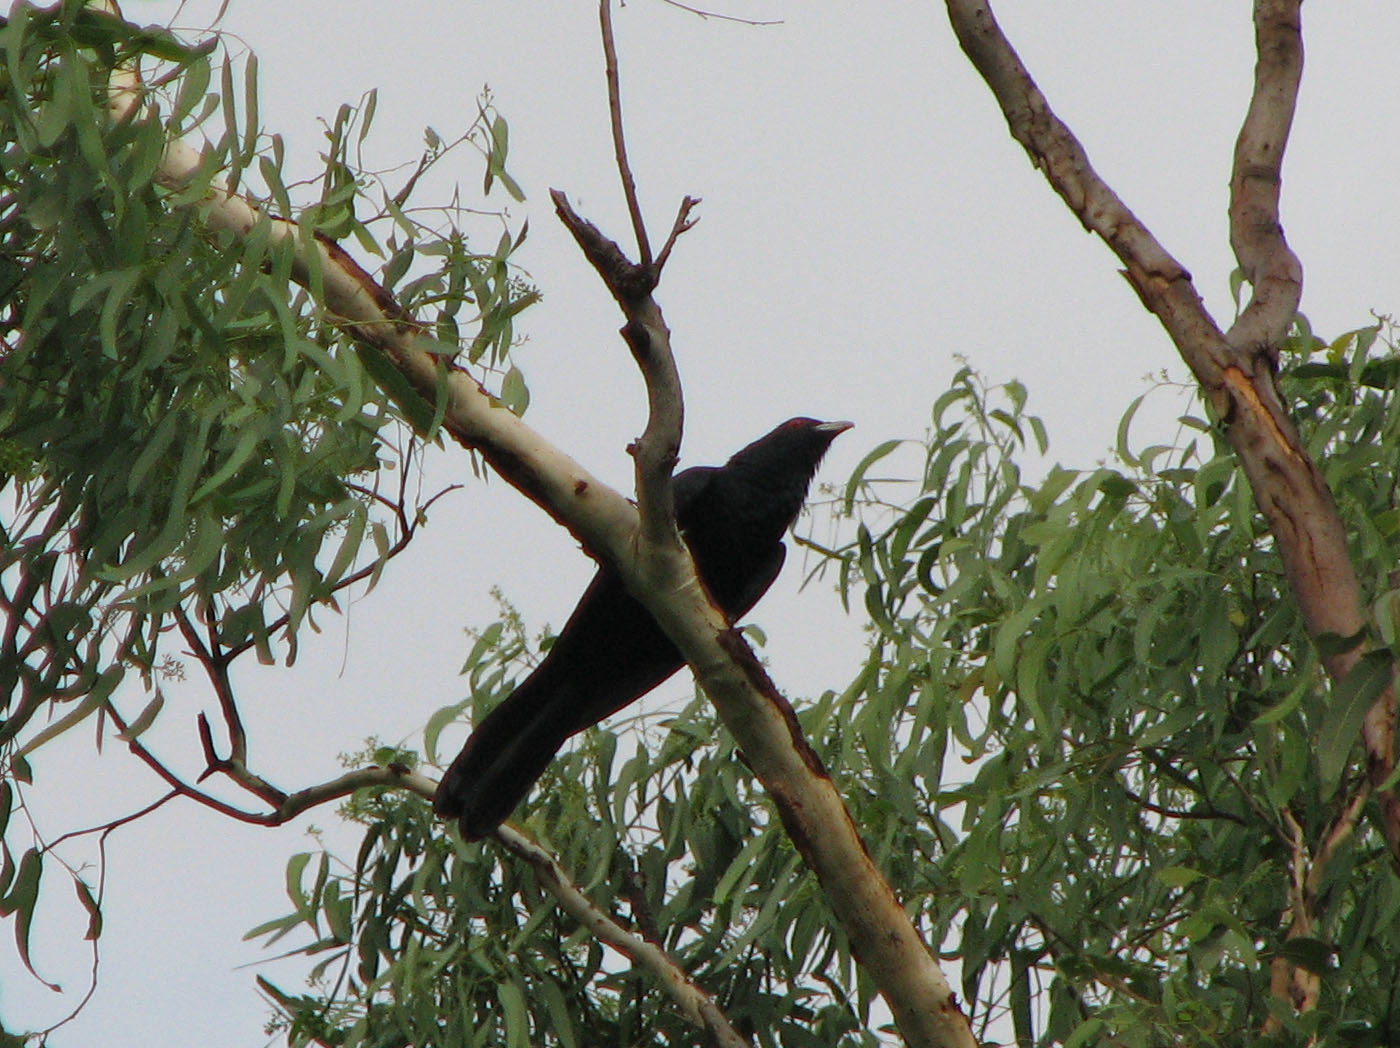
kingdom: Animalia
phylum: Chordata
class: Aves
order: Cuculiformes
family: Cuculidae
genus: Eudynamys
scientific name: Eudynamys orientalis
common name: Pacific koel
